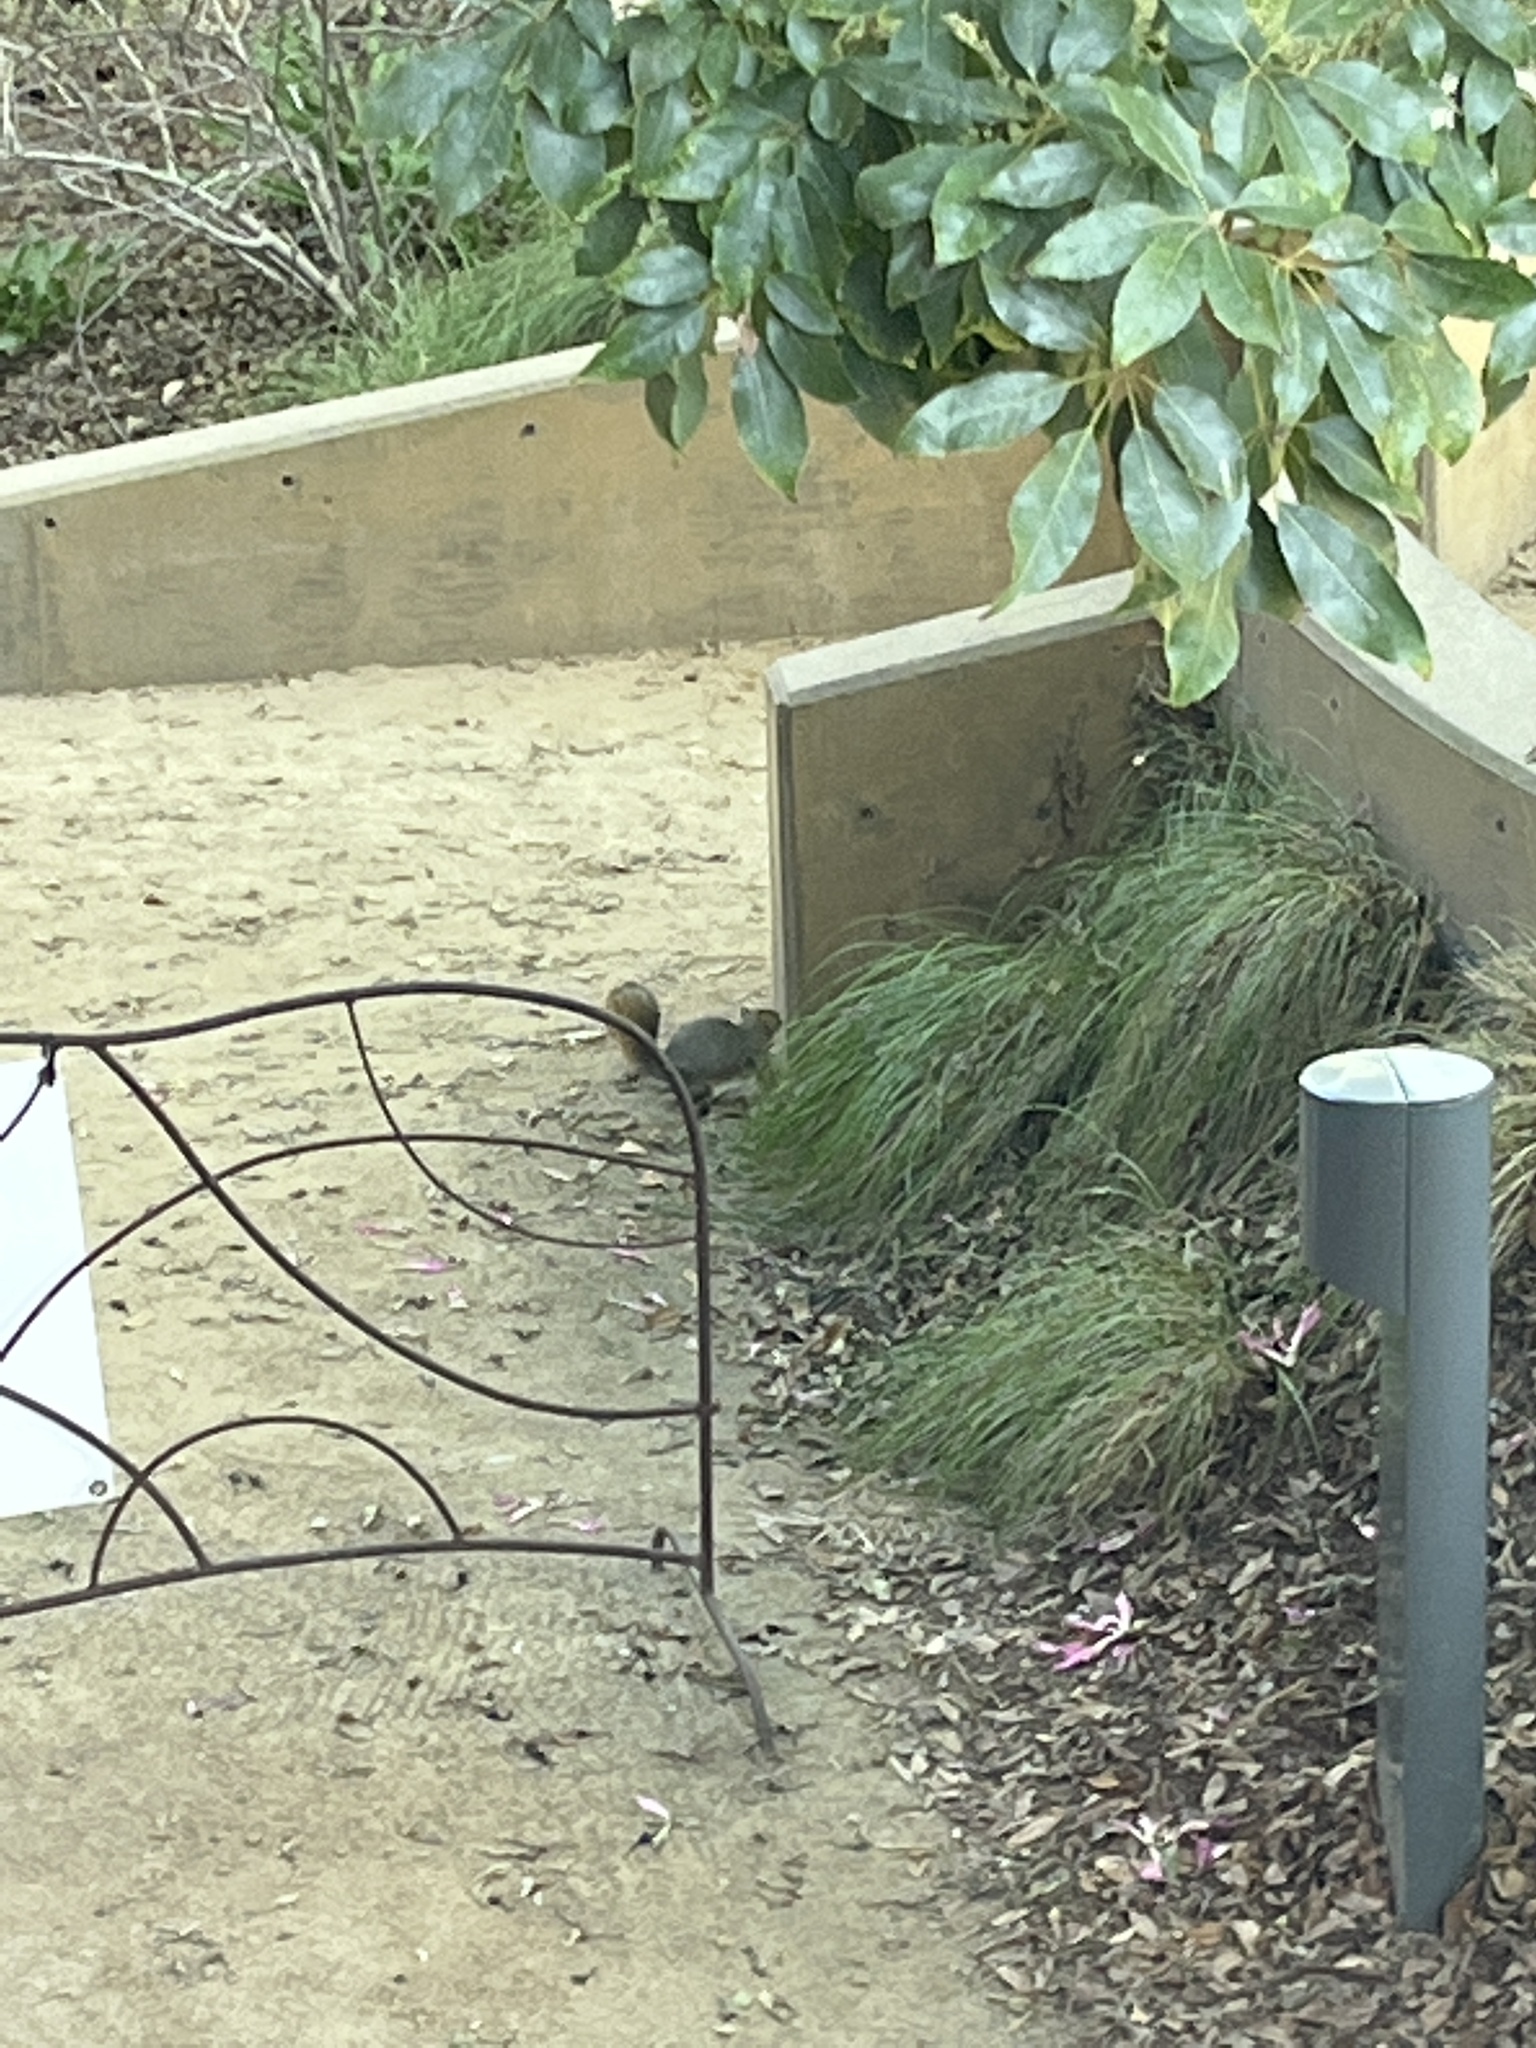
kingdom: Animalia
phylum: Chordata
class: Mammalia
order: Rodentia
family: Sciuridae
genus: Sciurus
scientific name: Sciurus niger
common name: Fox squirrel
